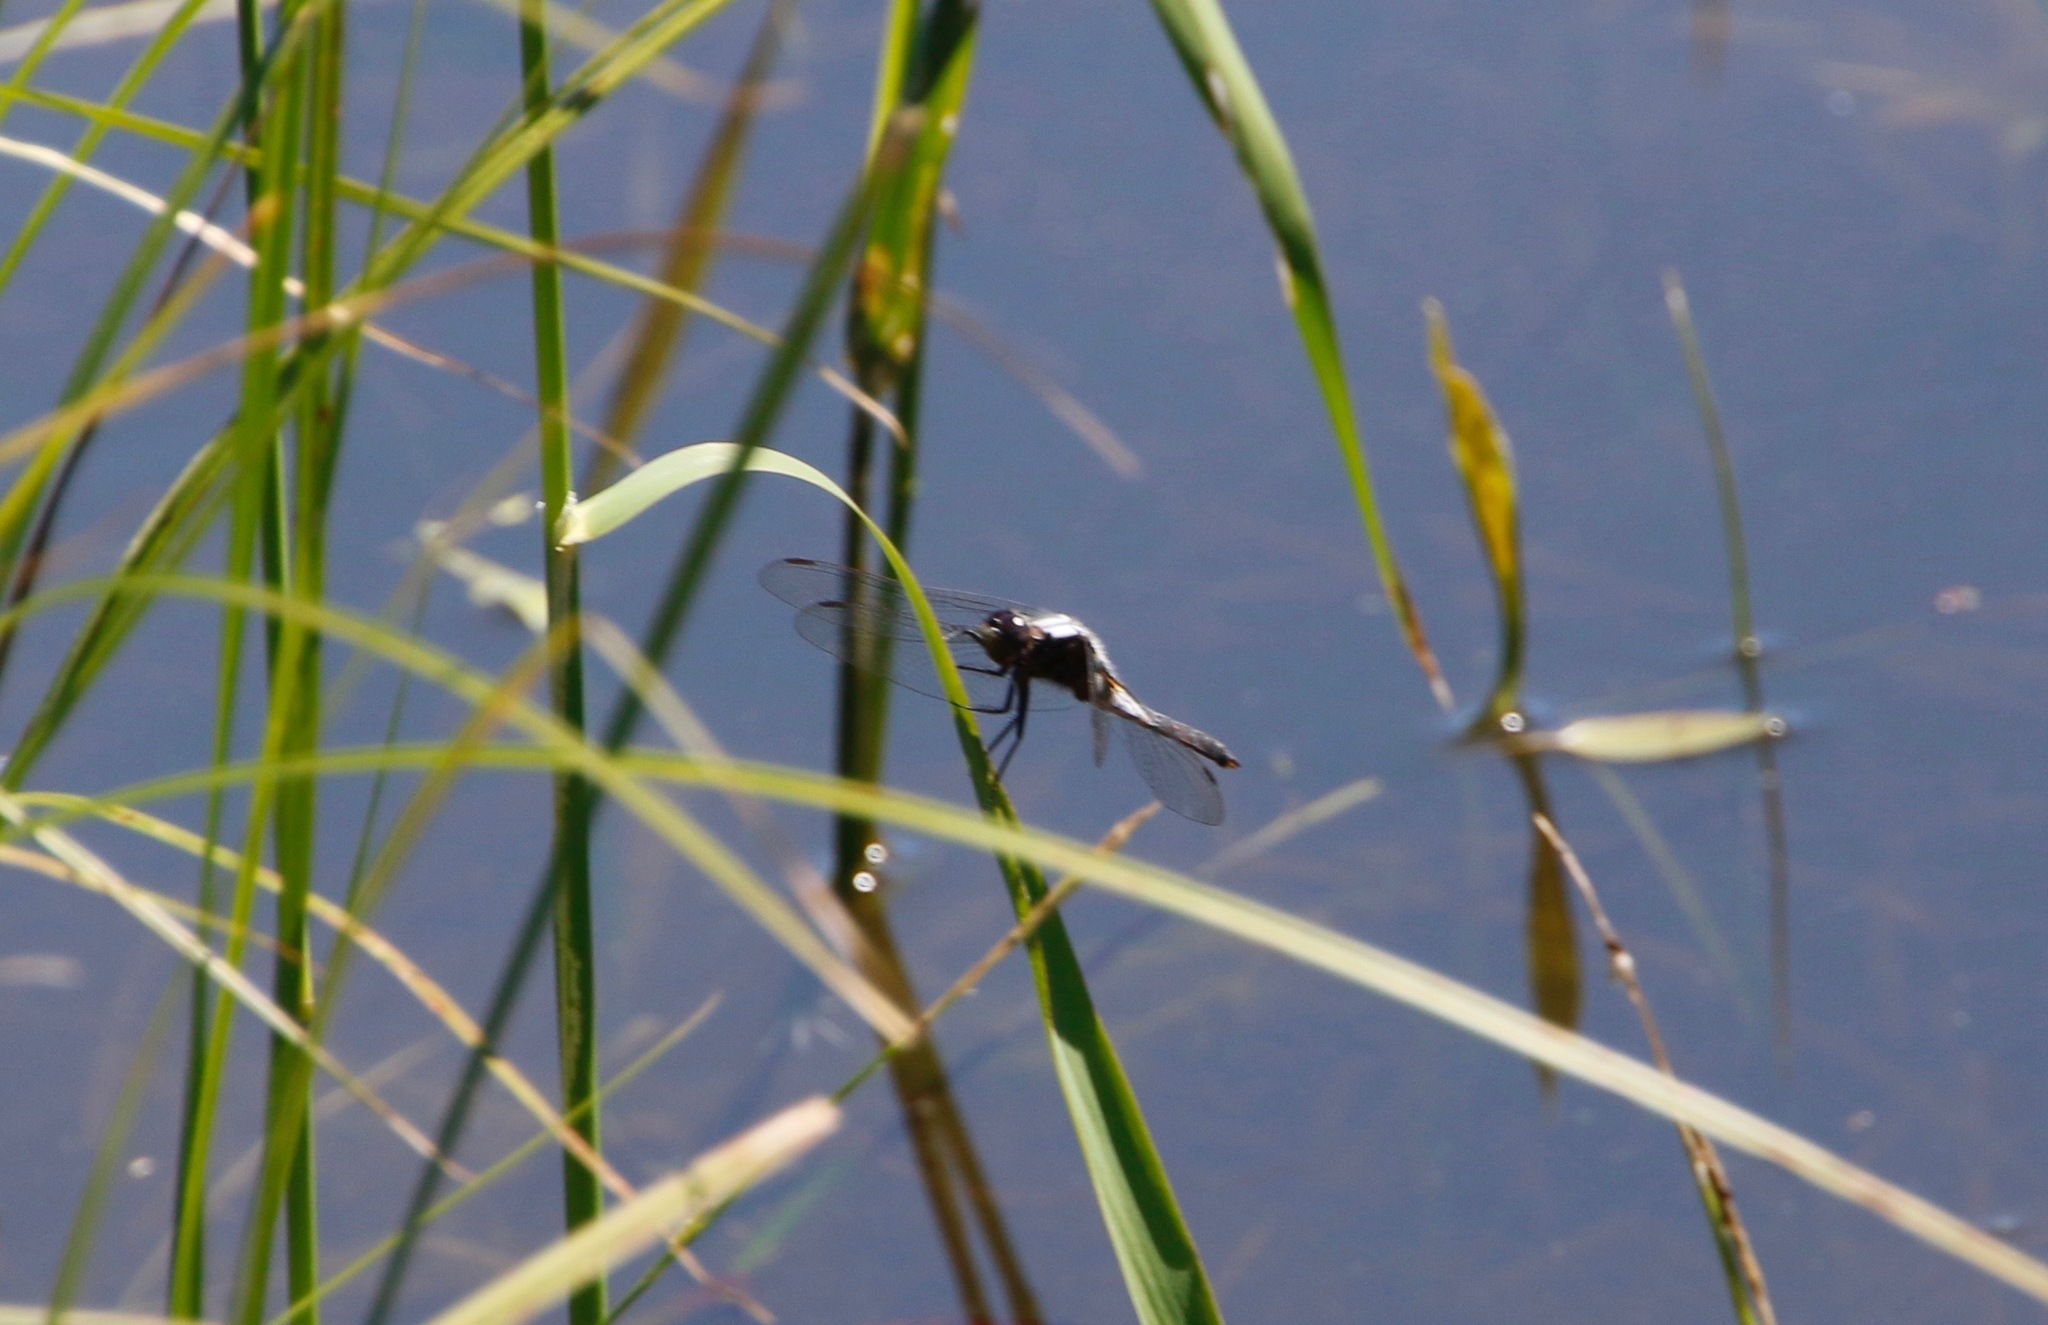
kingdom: Animalia
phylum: Arthropoda
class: Insecta
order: Odonata
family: Libellulidae
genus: Ladona
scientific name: Ladona julia
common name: Chalk-fronted corporal
